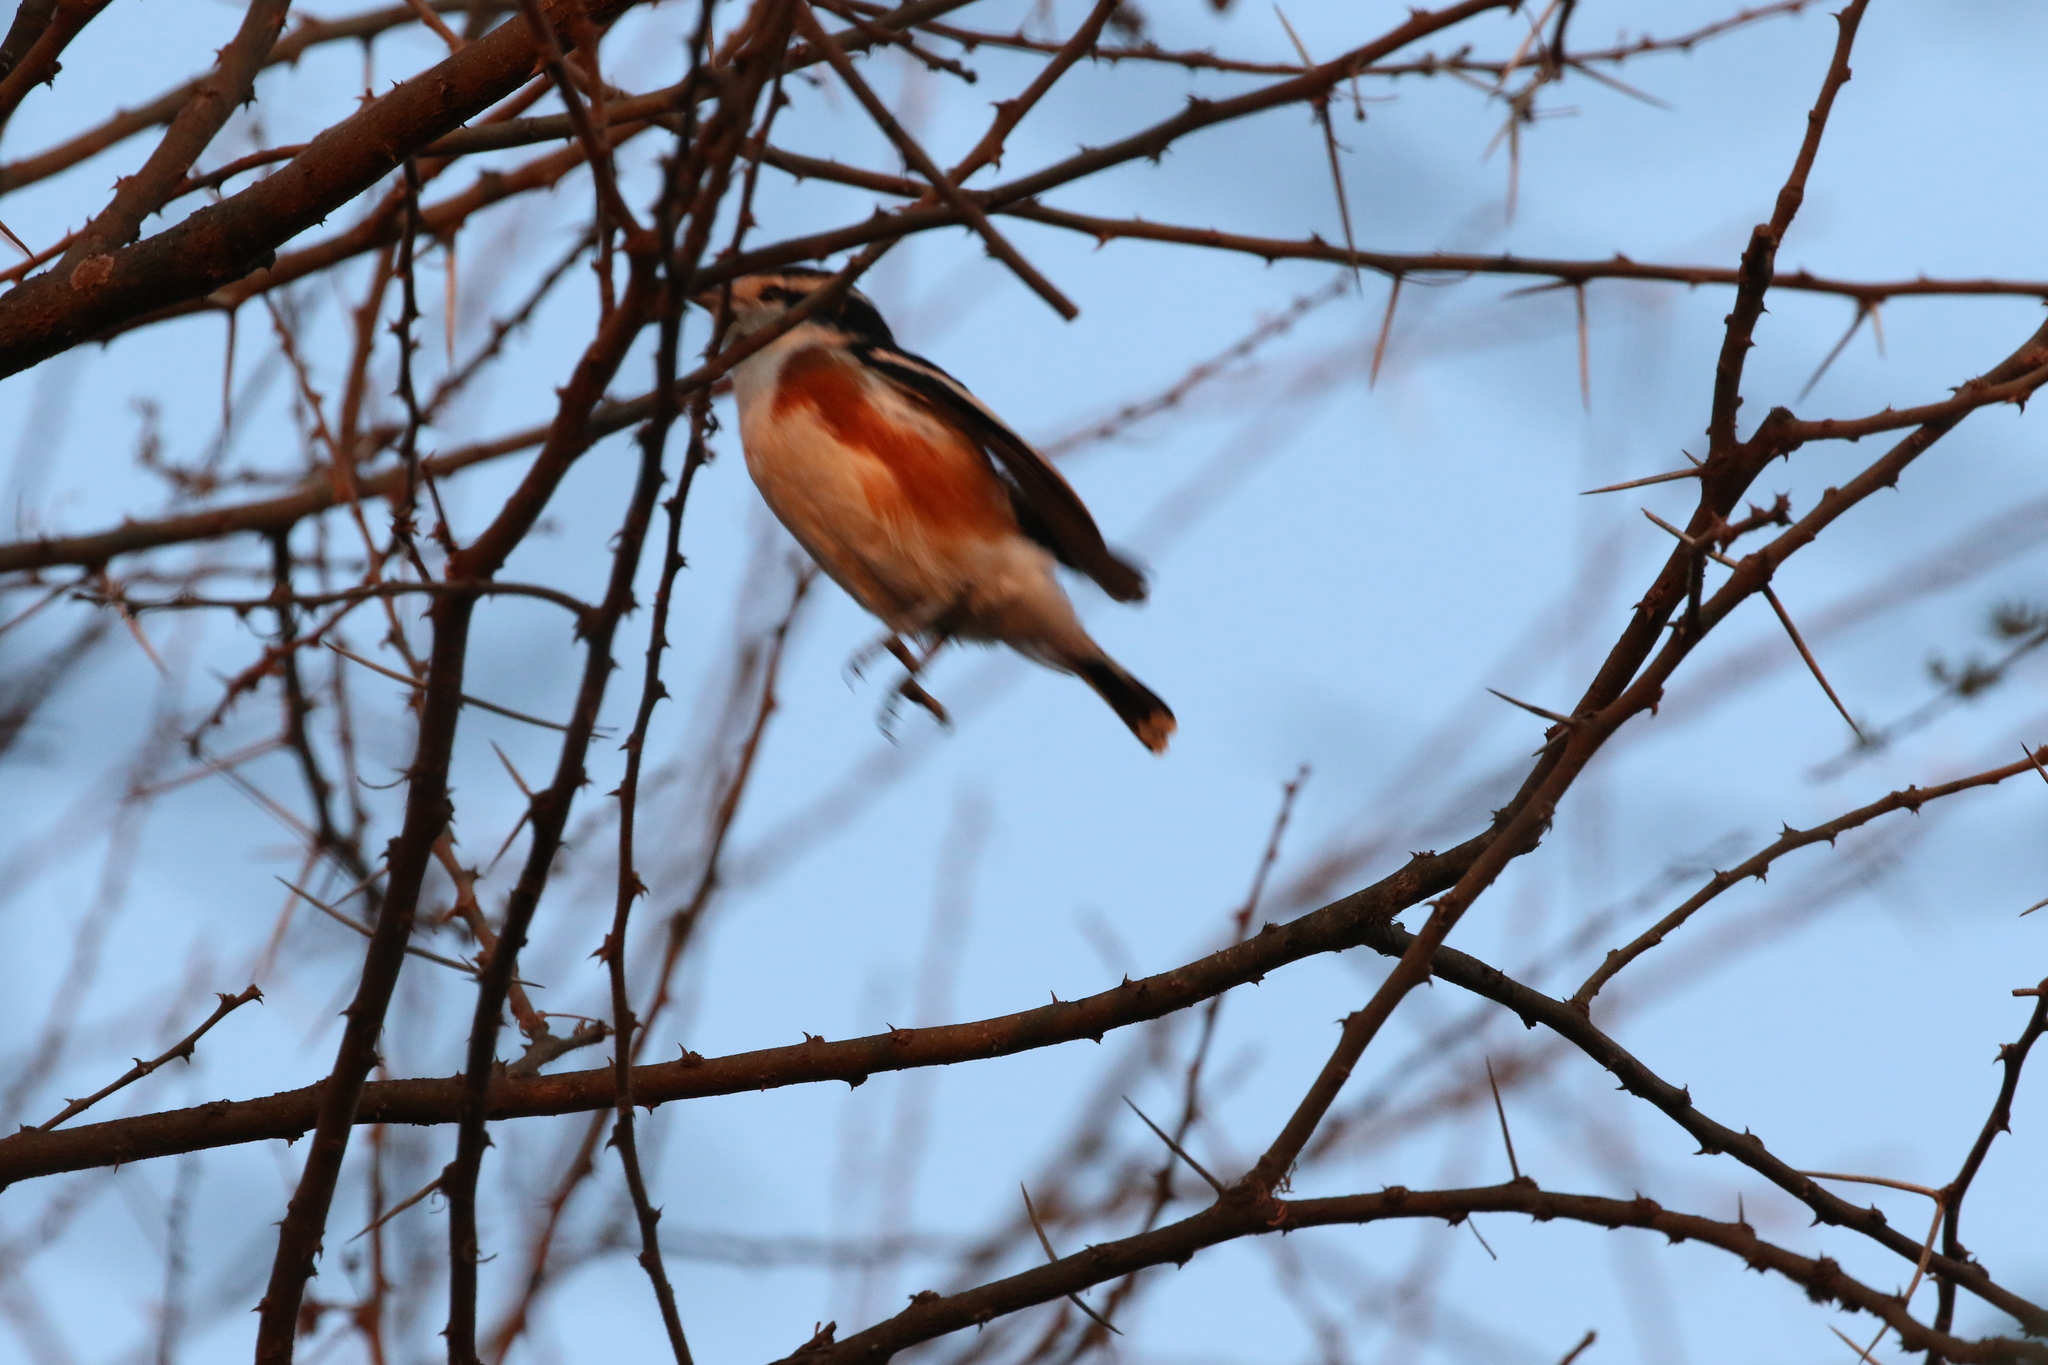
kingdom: Animalia
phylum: Chordata
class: Aves
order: Passeriformes
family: Malaconotidae
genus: Nilaus
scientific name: Nilaus afer
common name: Brubru
